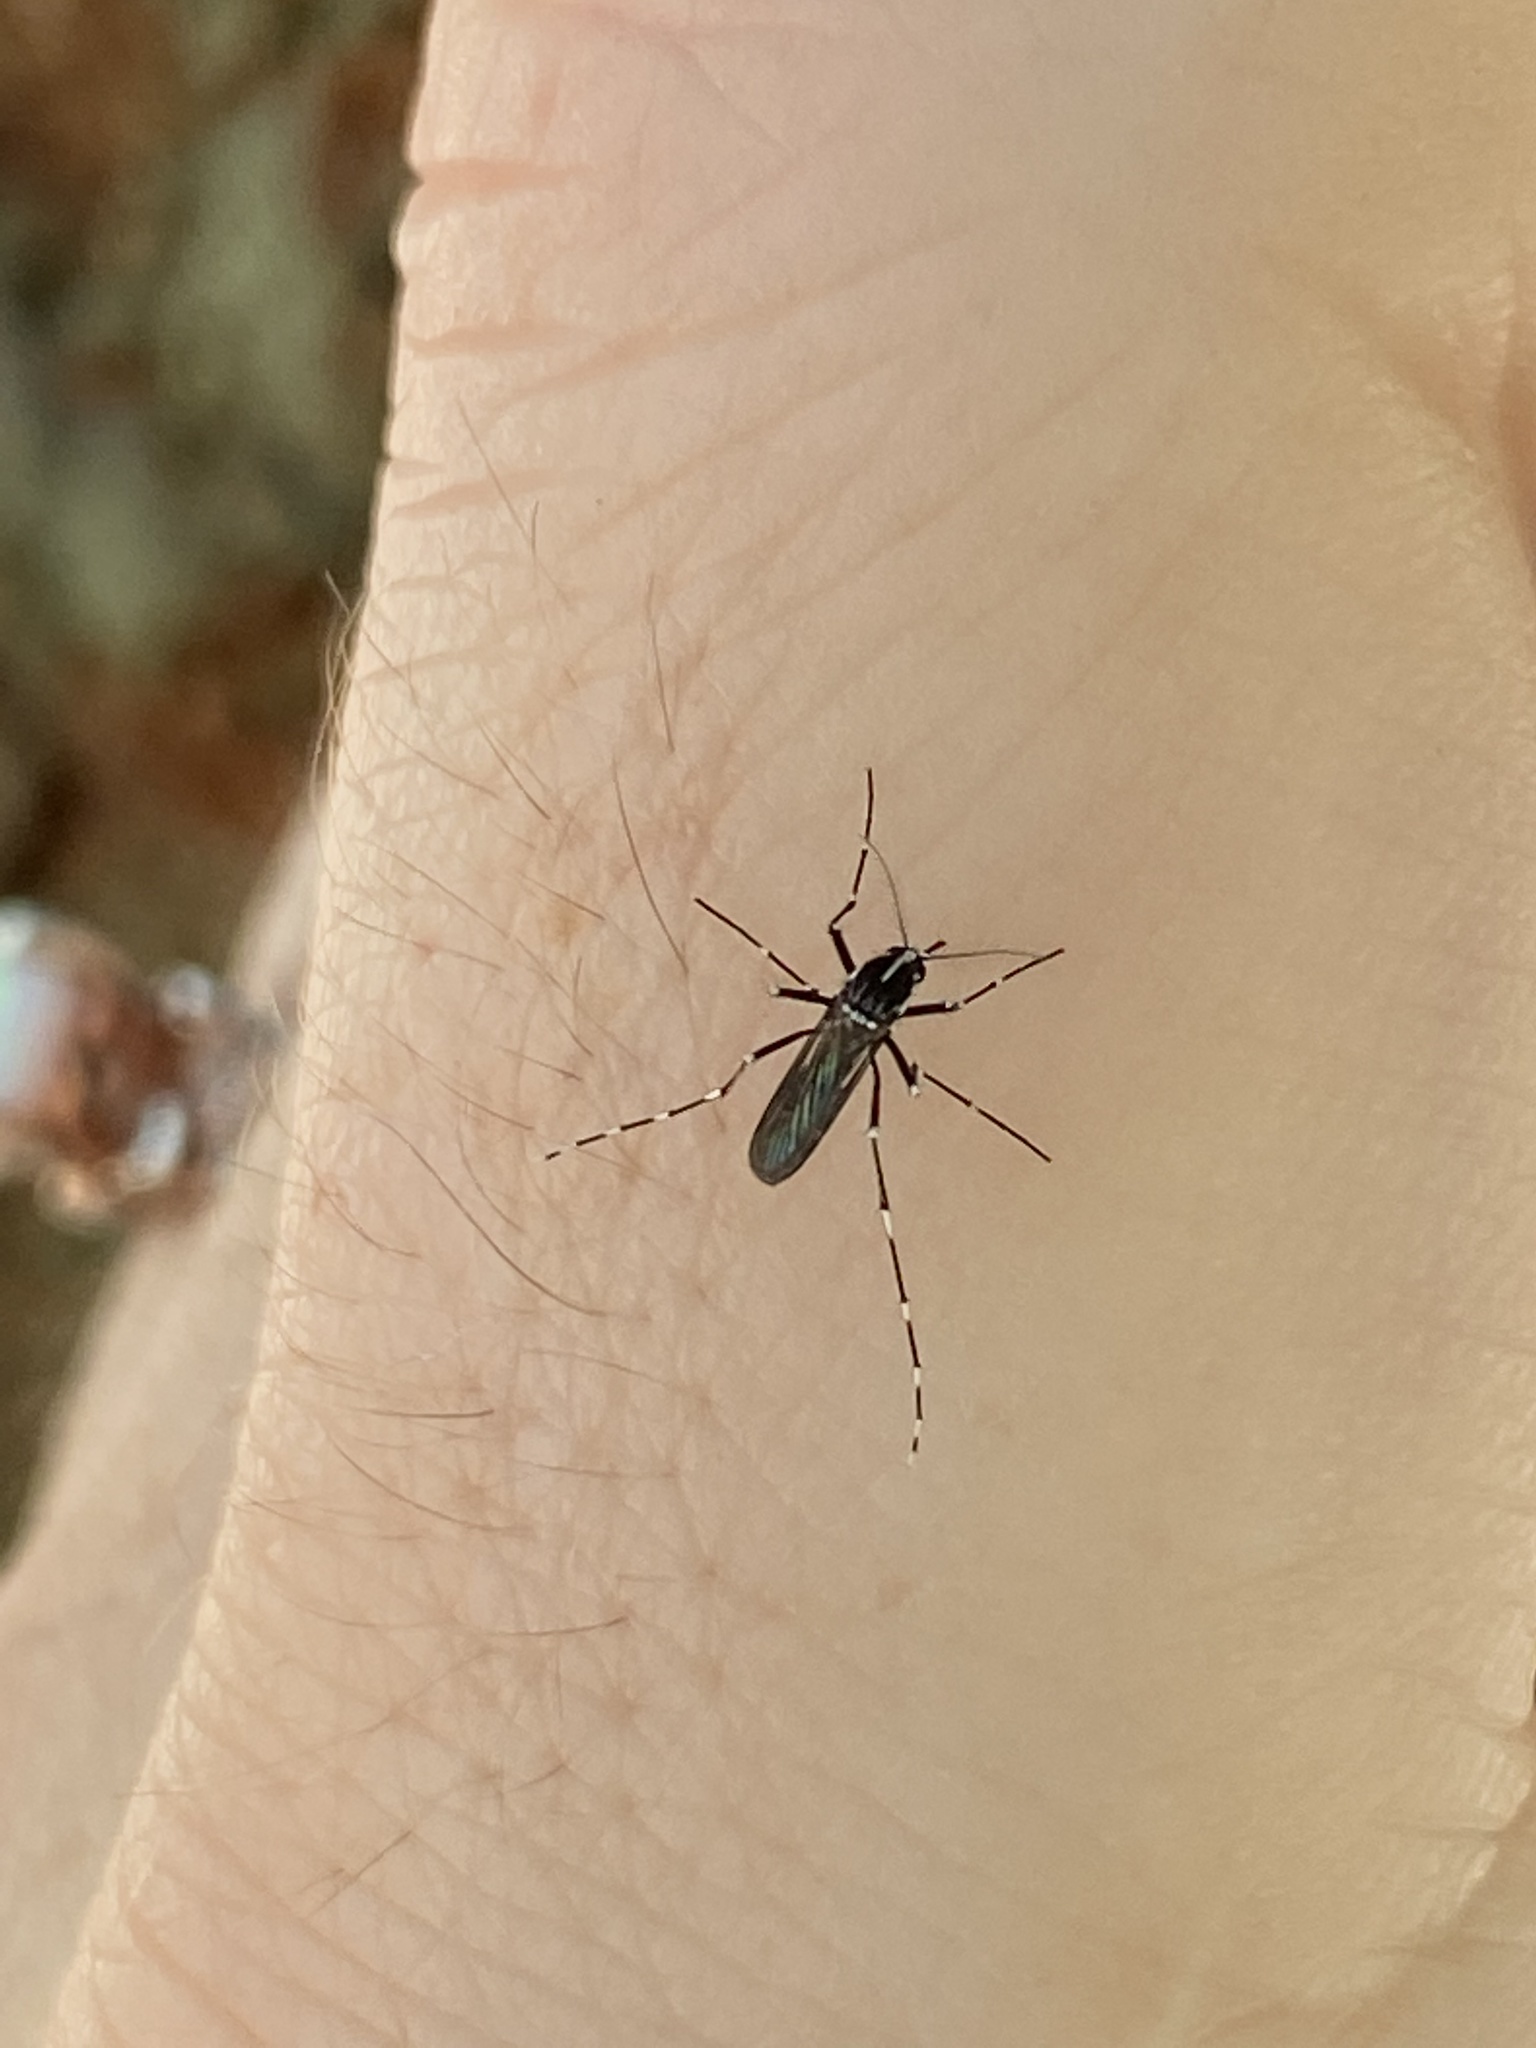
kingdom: Animalia
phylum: Arthropoda
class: Insecta
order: Diptera
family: Culicidae
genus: Aedes
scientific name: Aedes albopictus
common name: Tiger mosquito
